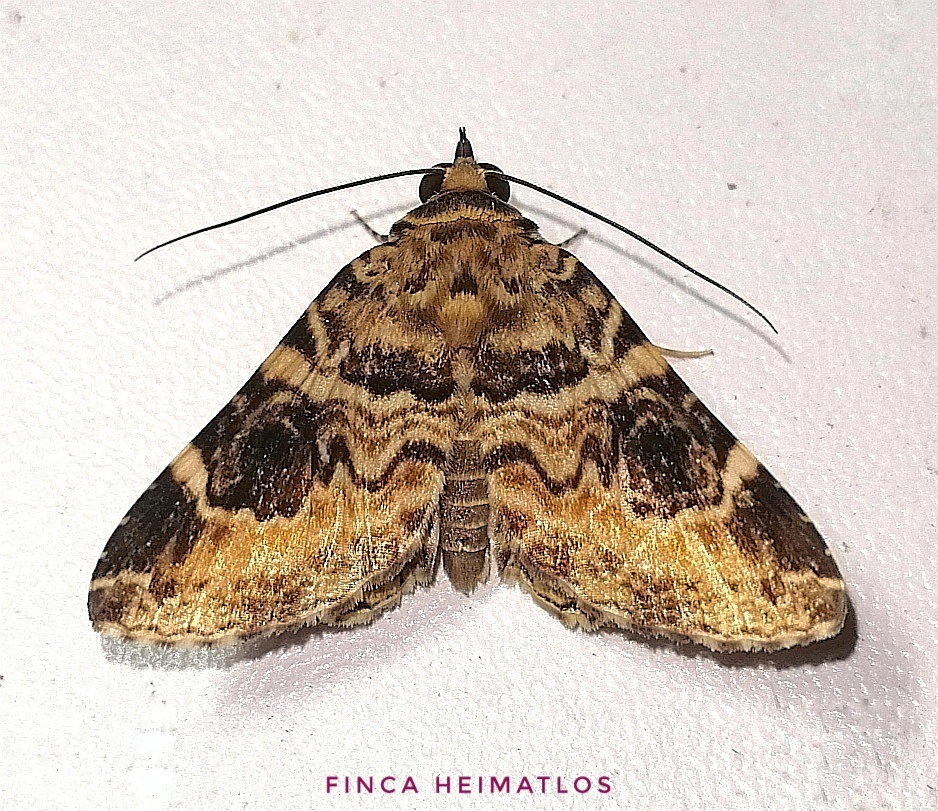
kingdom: Animalia
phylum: Arthropoda
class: Insecta
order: Lepidoptera
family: Erebidae
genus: Acolasis
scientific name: Acolasis tanais
